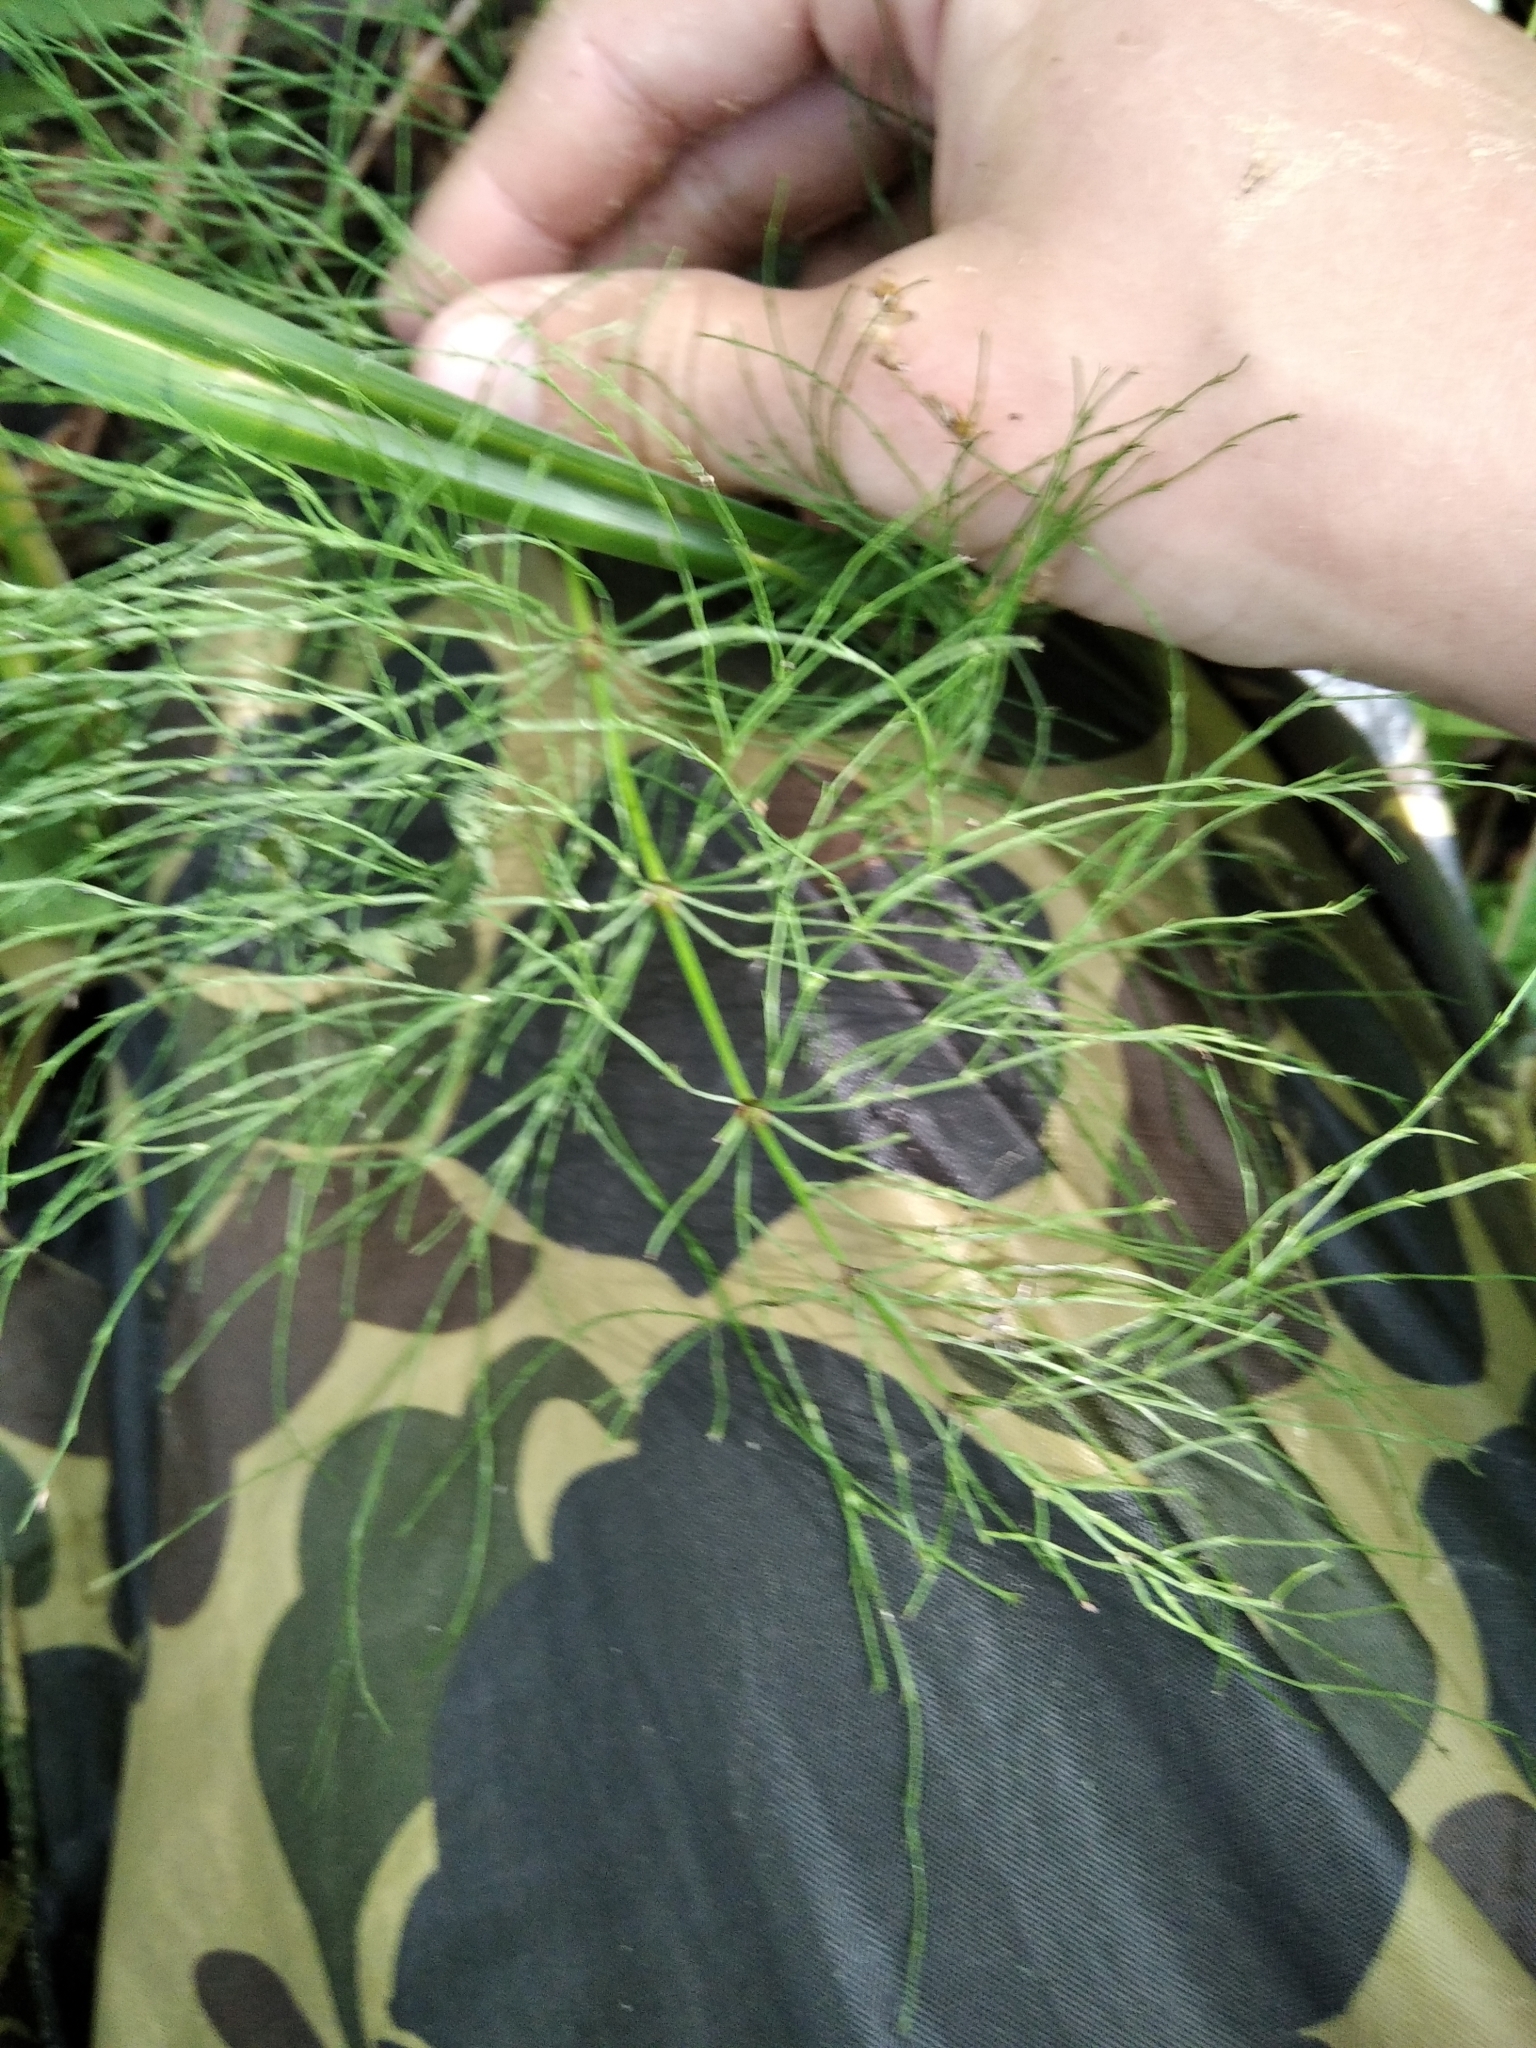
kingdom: Plantae
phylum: Tracheophyta
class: Polypodiopsida
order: Equisetales
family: Equisetaceae
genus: Equisetum
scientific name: Equisetum sylvaticum
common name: Wood horsetail
